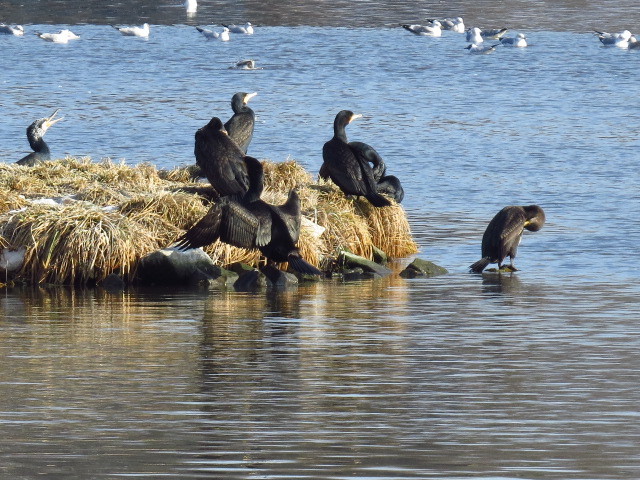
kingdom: Animalia
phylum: Chordata
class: Aves
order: Suliformes
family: Phalacrocoracidae
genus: Phalacrocorax
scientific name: Phalacrocorax carbo
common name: Great cormorant
